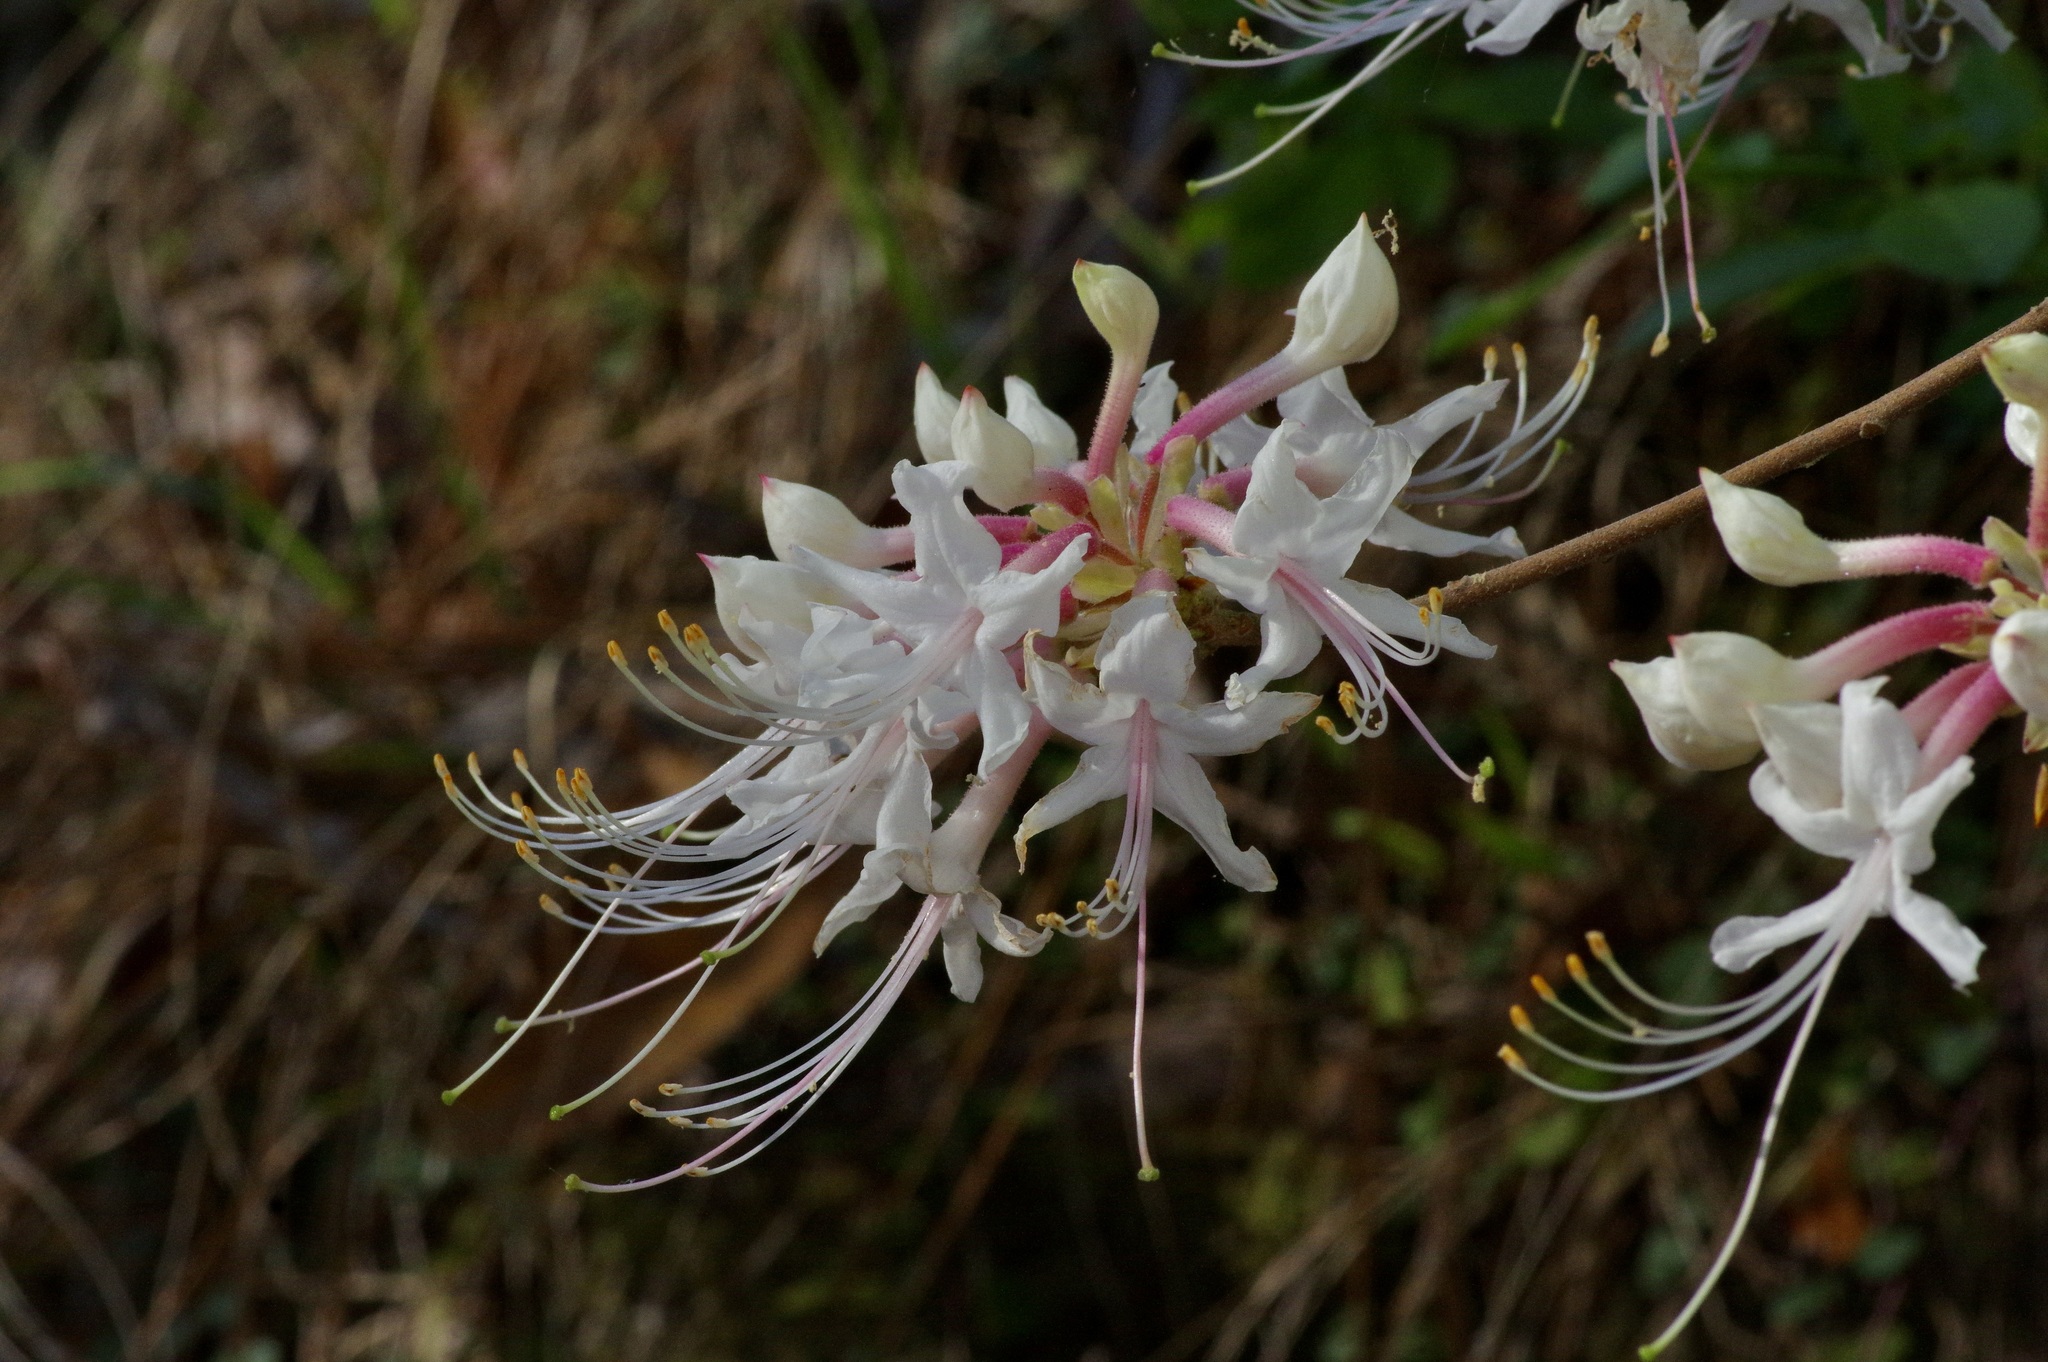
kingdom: Plantae
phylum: Tracheophyta
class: Magnoliopsida
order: Ericales
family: Ericaceae
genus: Rhododendron
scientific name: Rhododendron canescens
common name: Mountain azalea
